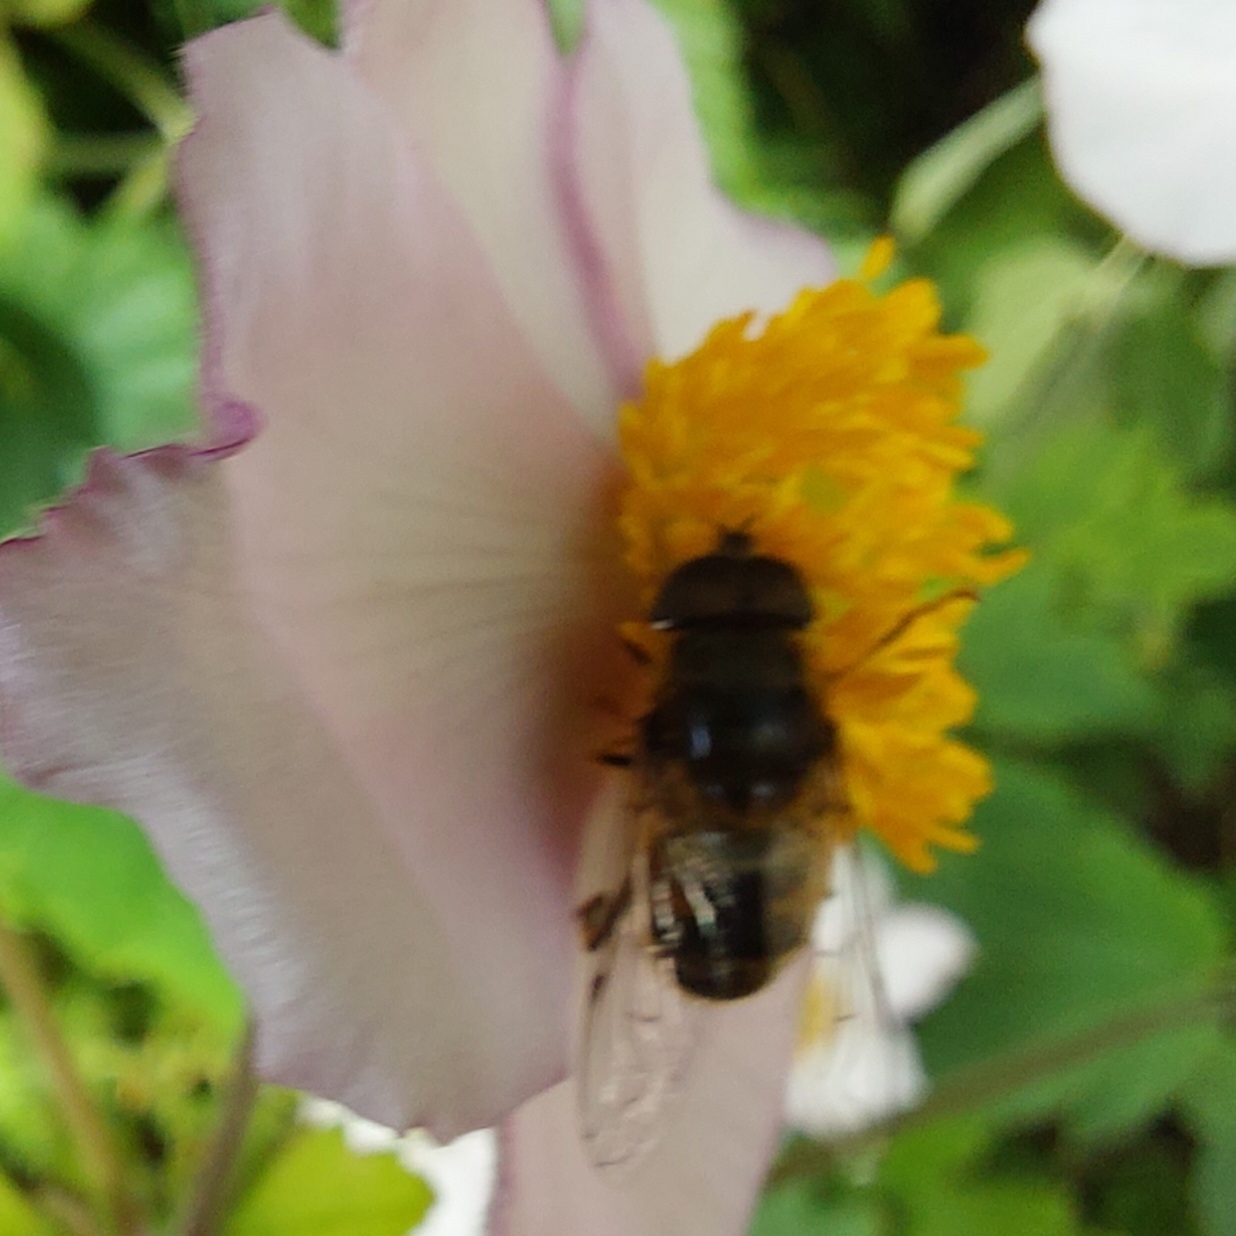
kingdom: Animalia
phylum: Arthropoda
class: Insecta
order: Diptera
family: Syrphidae
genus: Eristalis
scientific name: Eristalis pertinax
